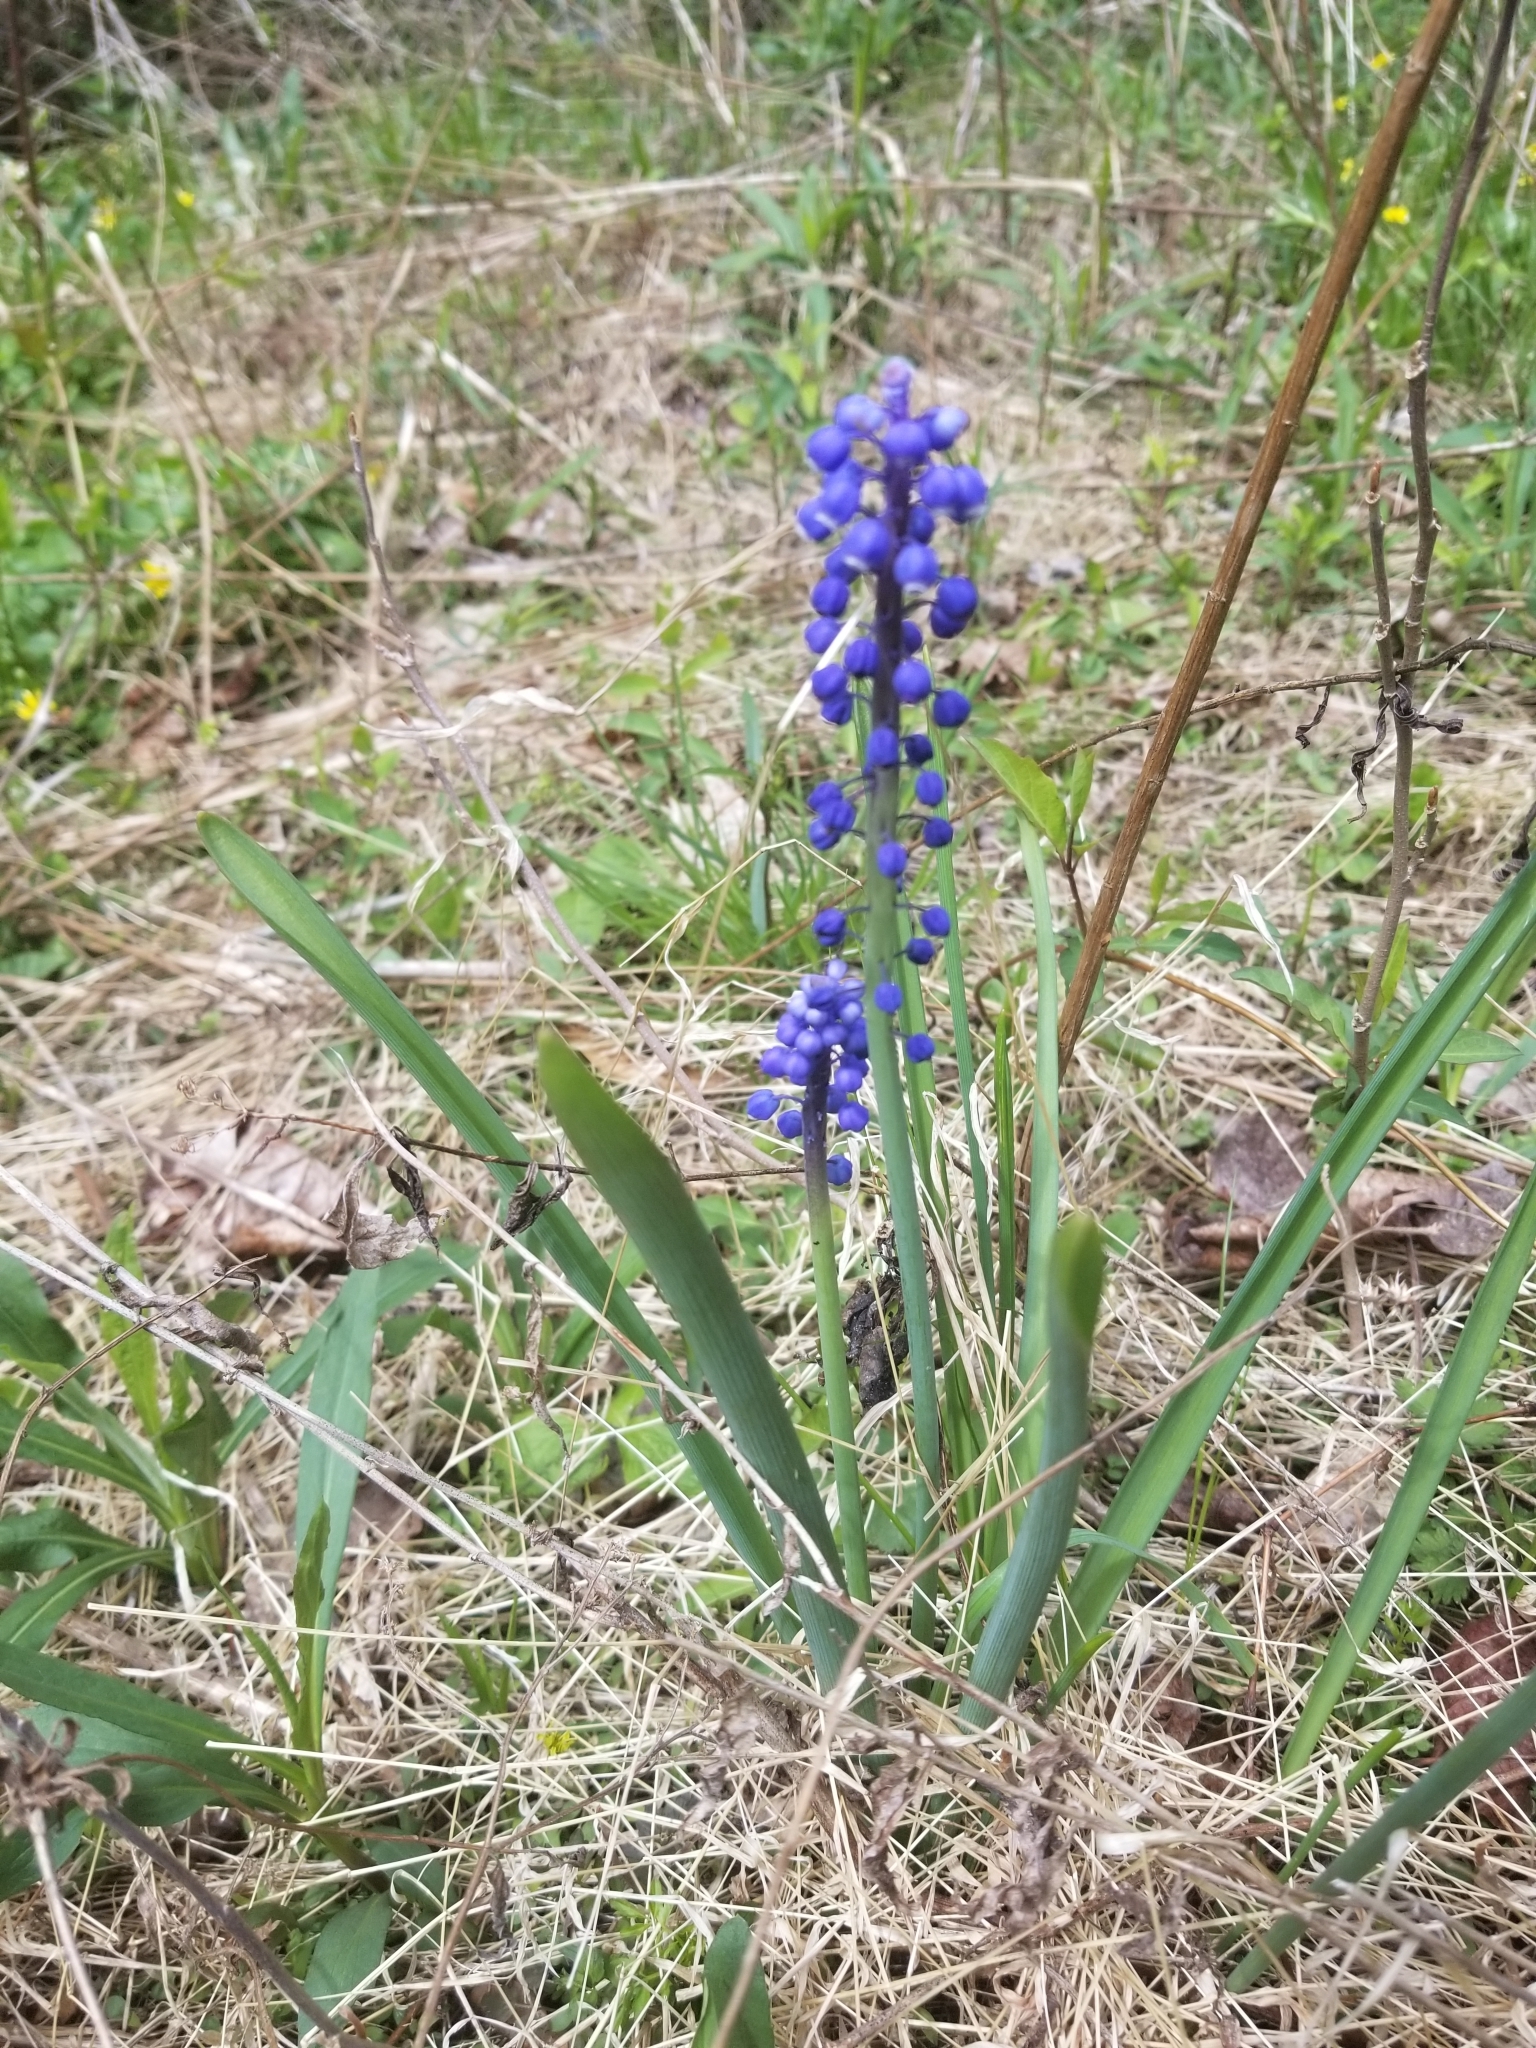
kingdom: Plantae
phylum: Tracheophyta
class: Liliopsida
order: Asparagales
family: Asparagaceae
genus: Muscari
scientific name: Muscari botryoides
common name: Compact grape-hyacinth
